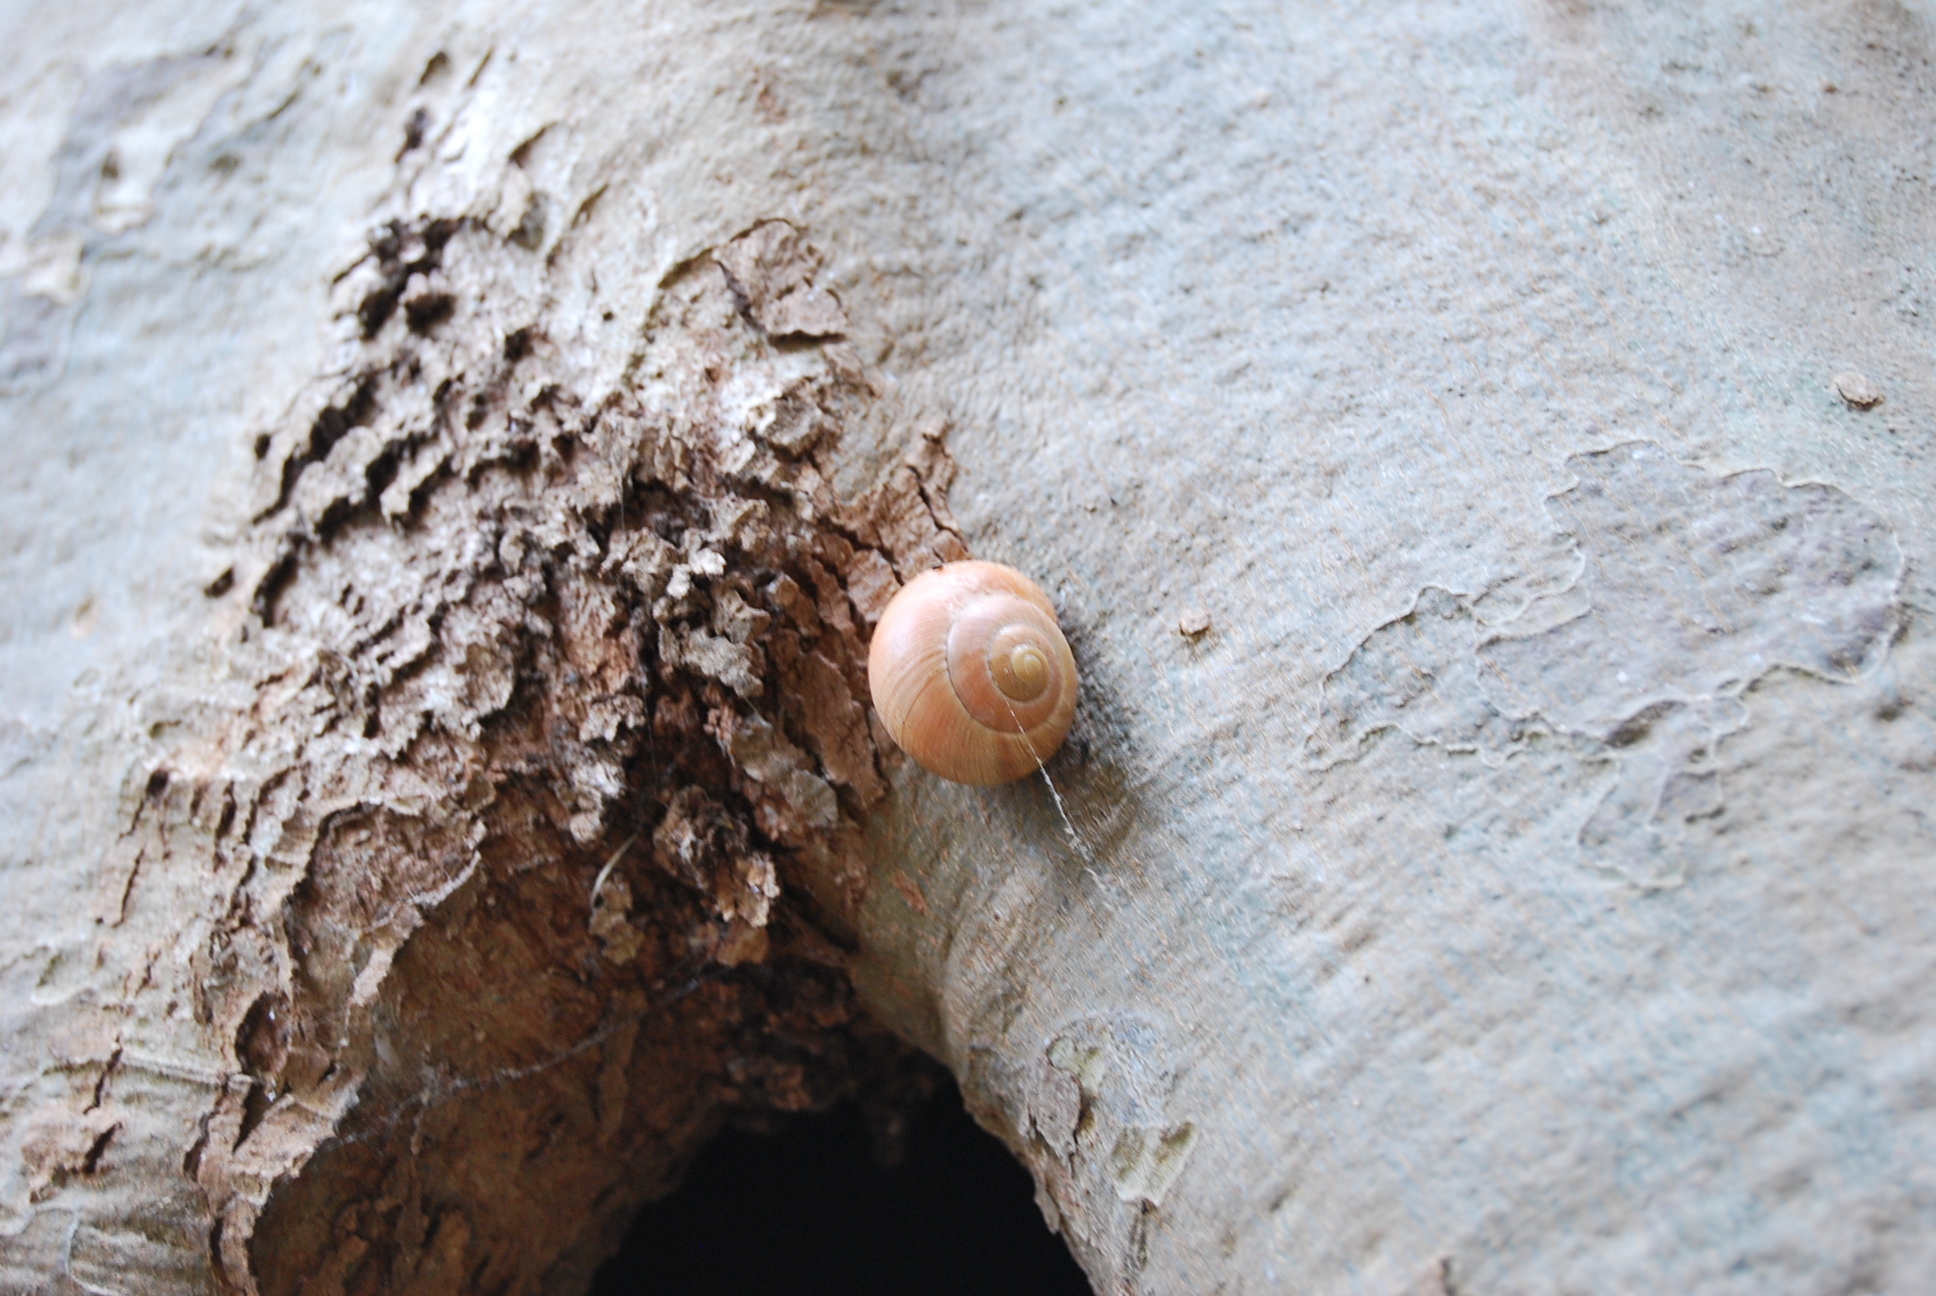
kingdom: Animalia
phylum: Mollusca
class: Gastropoda
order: Stylommatophora
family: Helicidae
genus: Cepaea
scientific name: Cepaea nemoralis
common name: Grovesnail
